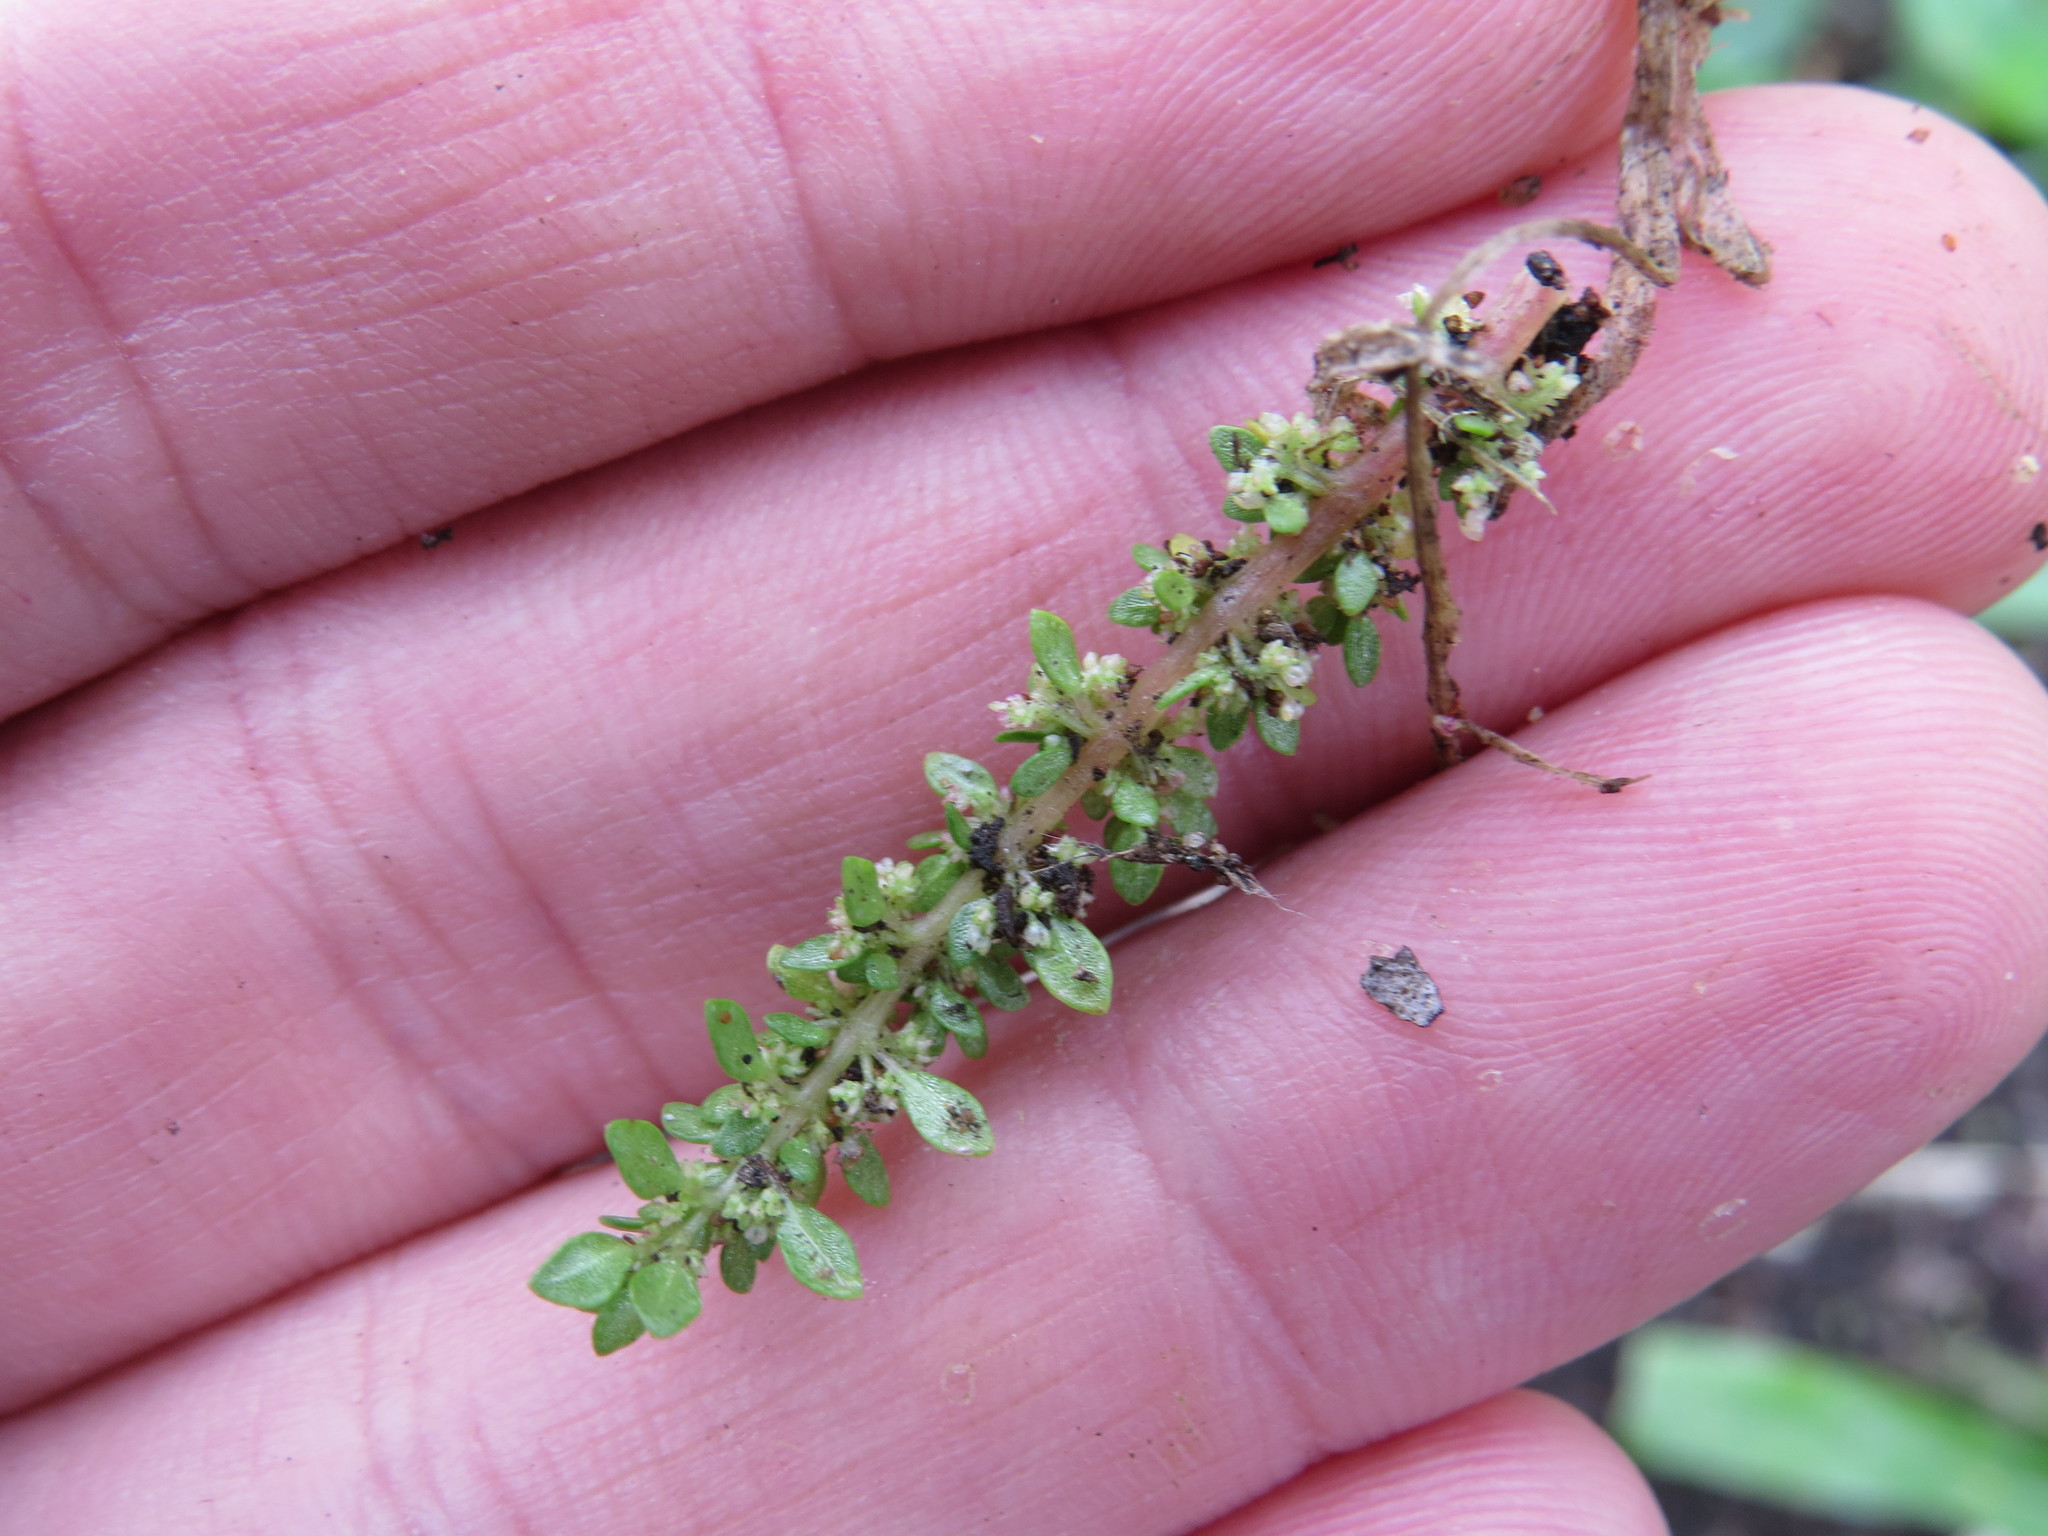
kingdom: Plantae
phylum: Tracheophyta
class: Magnoliopsida
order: Rosales
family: Urticaceae
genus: Pilea
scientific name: Pilea microphylla
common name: Artillery-plant
